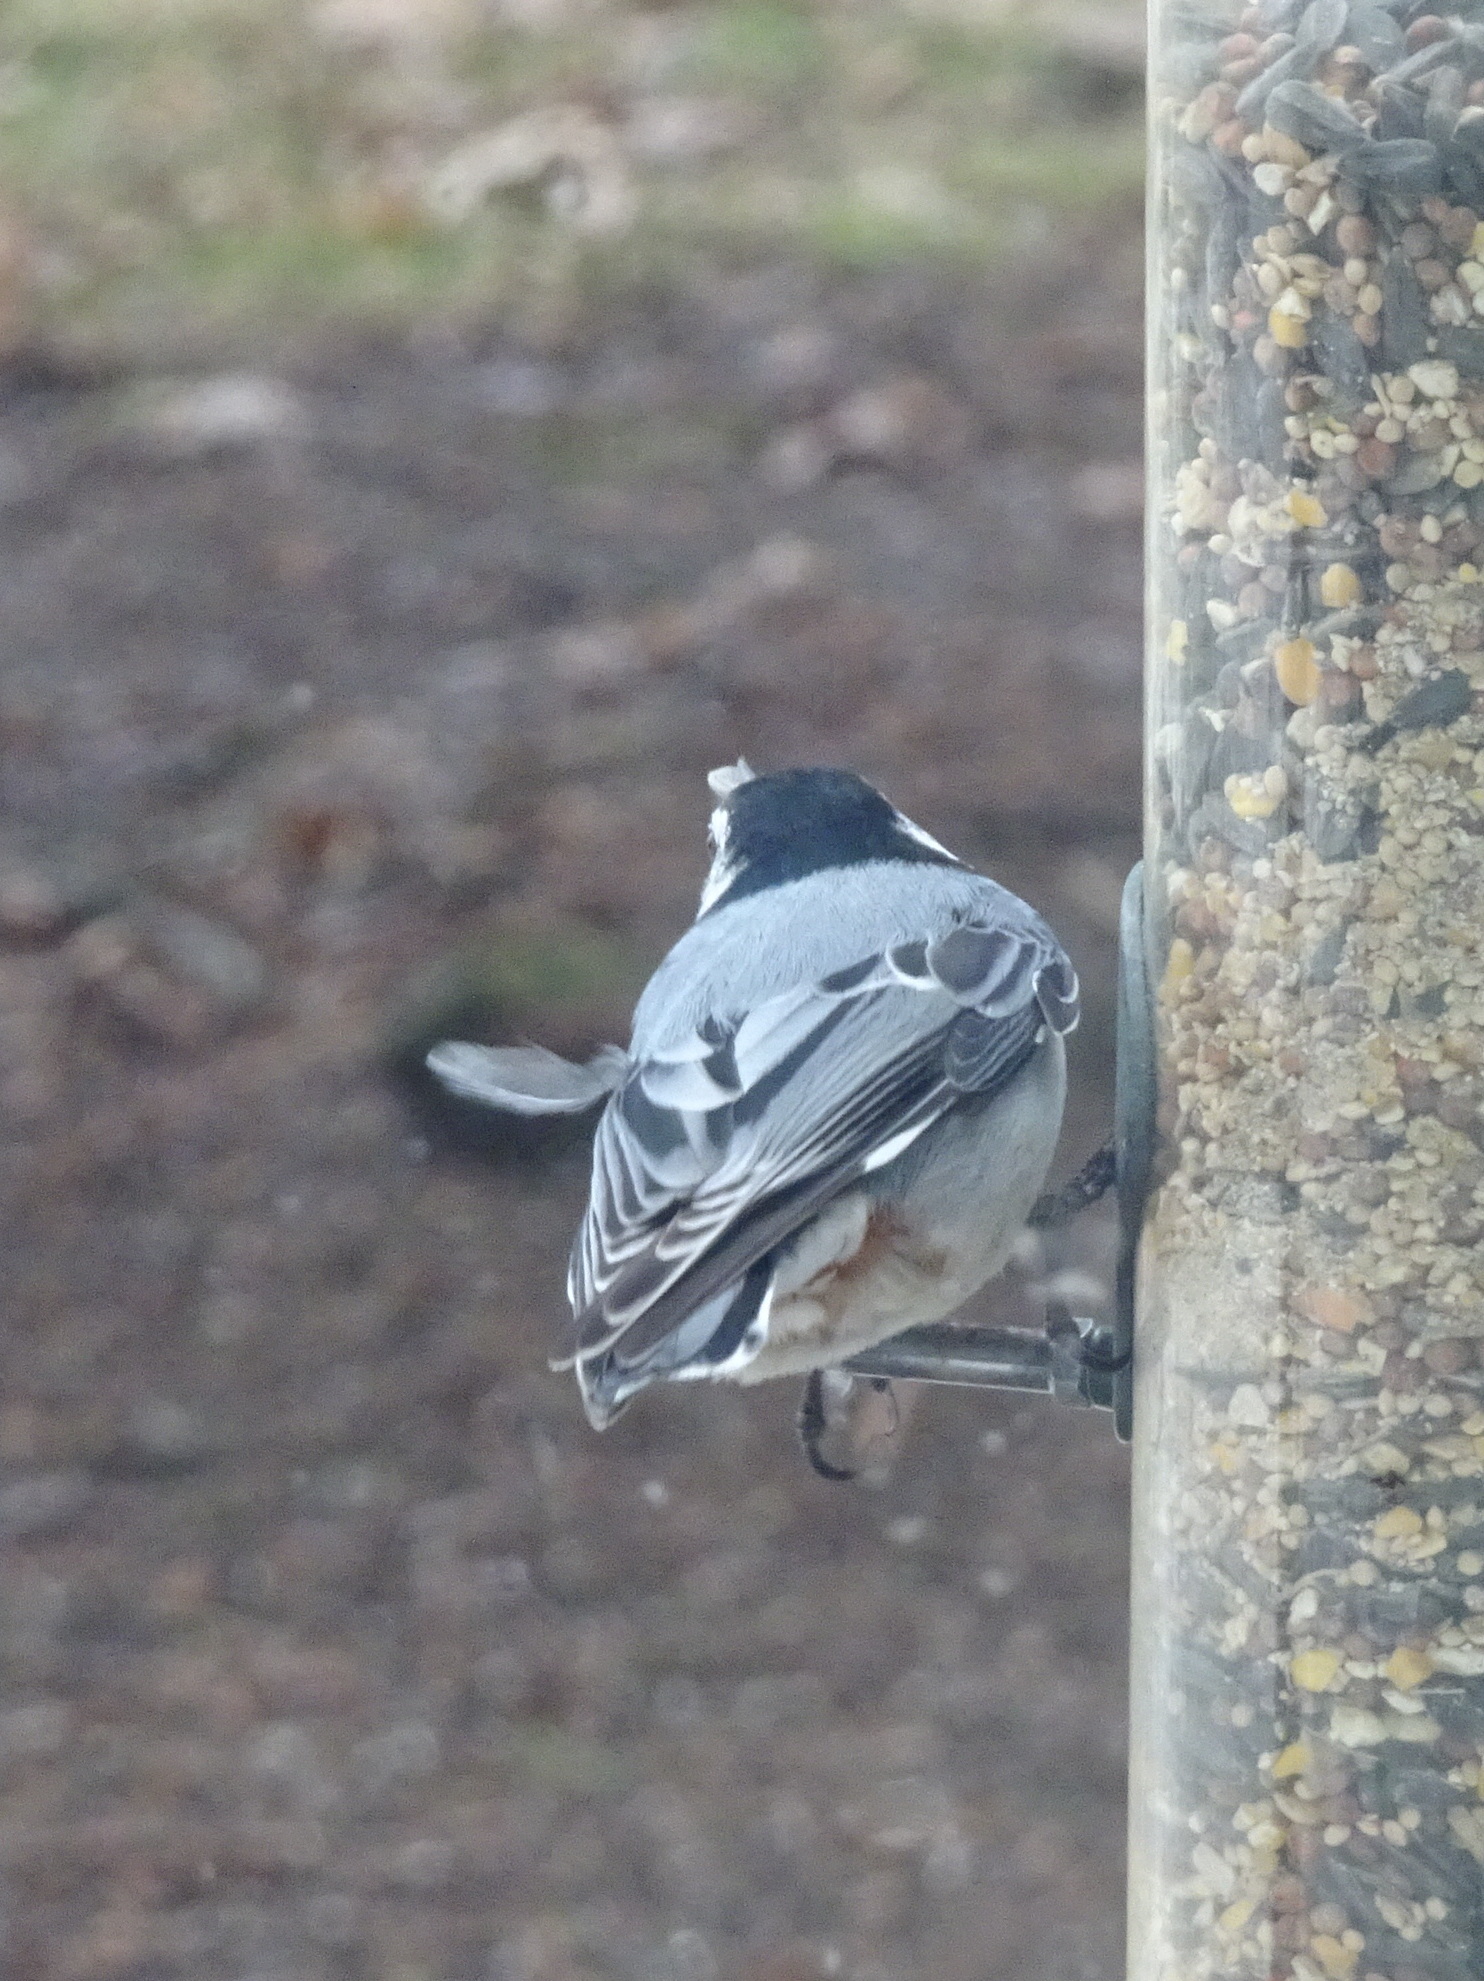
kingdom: Animalia
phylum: Chordata
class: Aves
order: Passeriformes
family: Sittidae
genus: Sitta
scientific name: Sitta carolinensis
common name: White-breasted nuthatch
